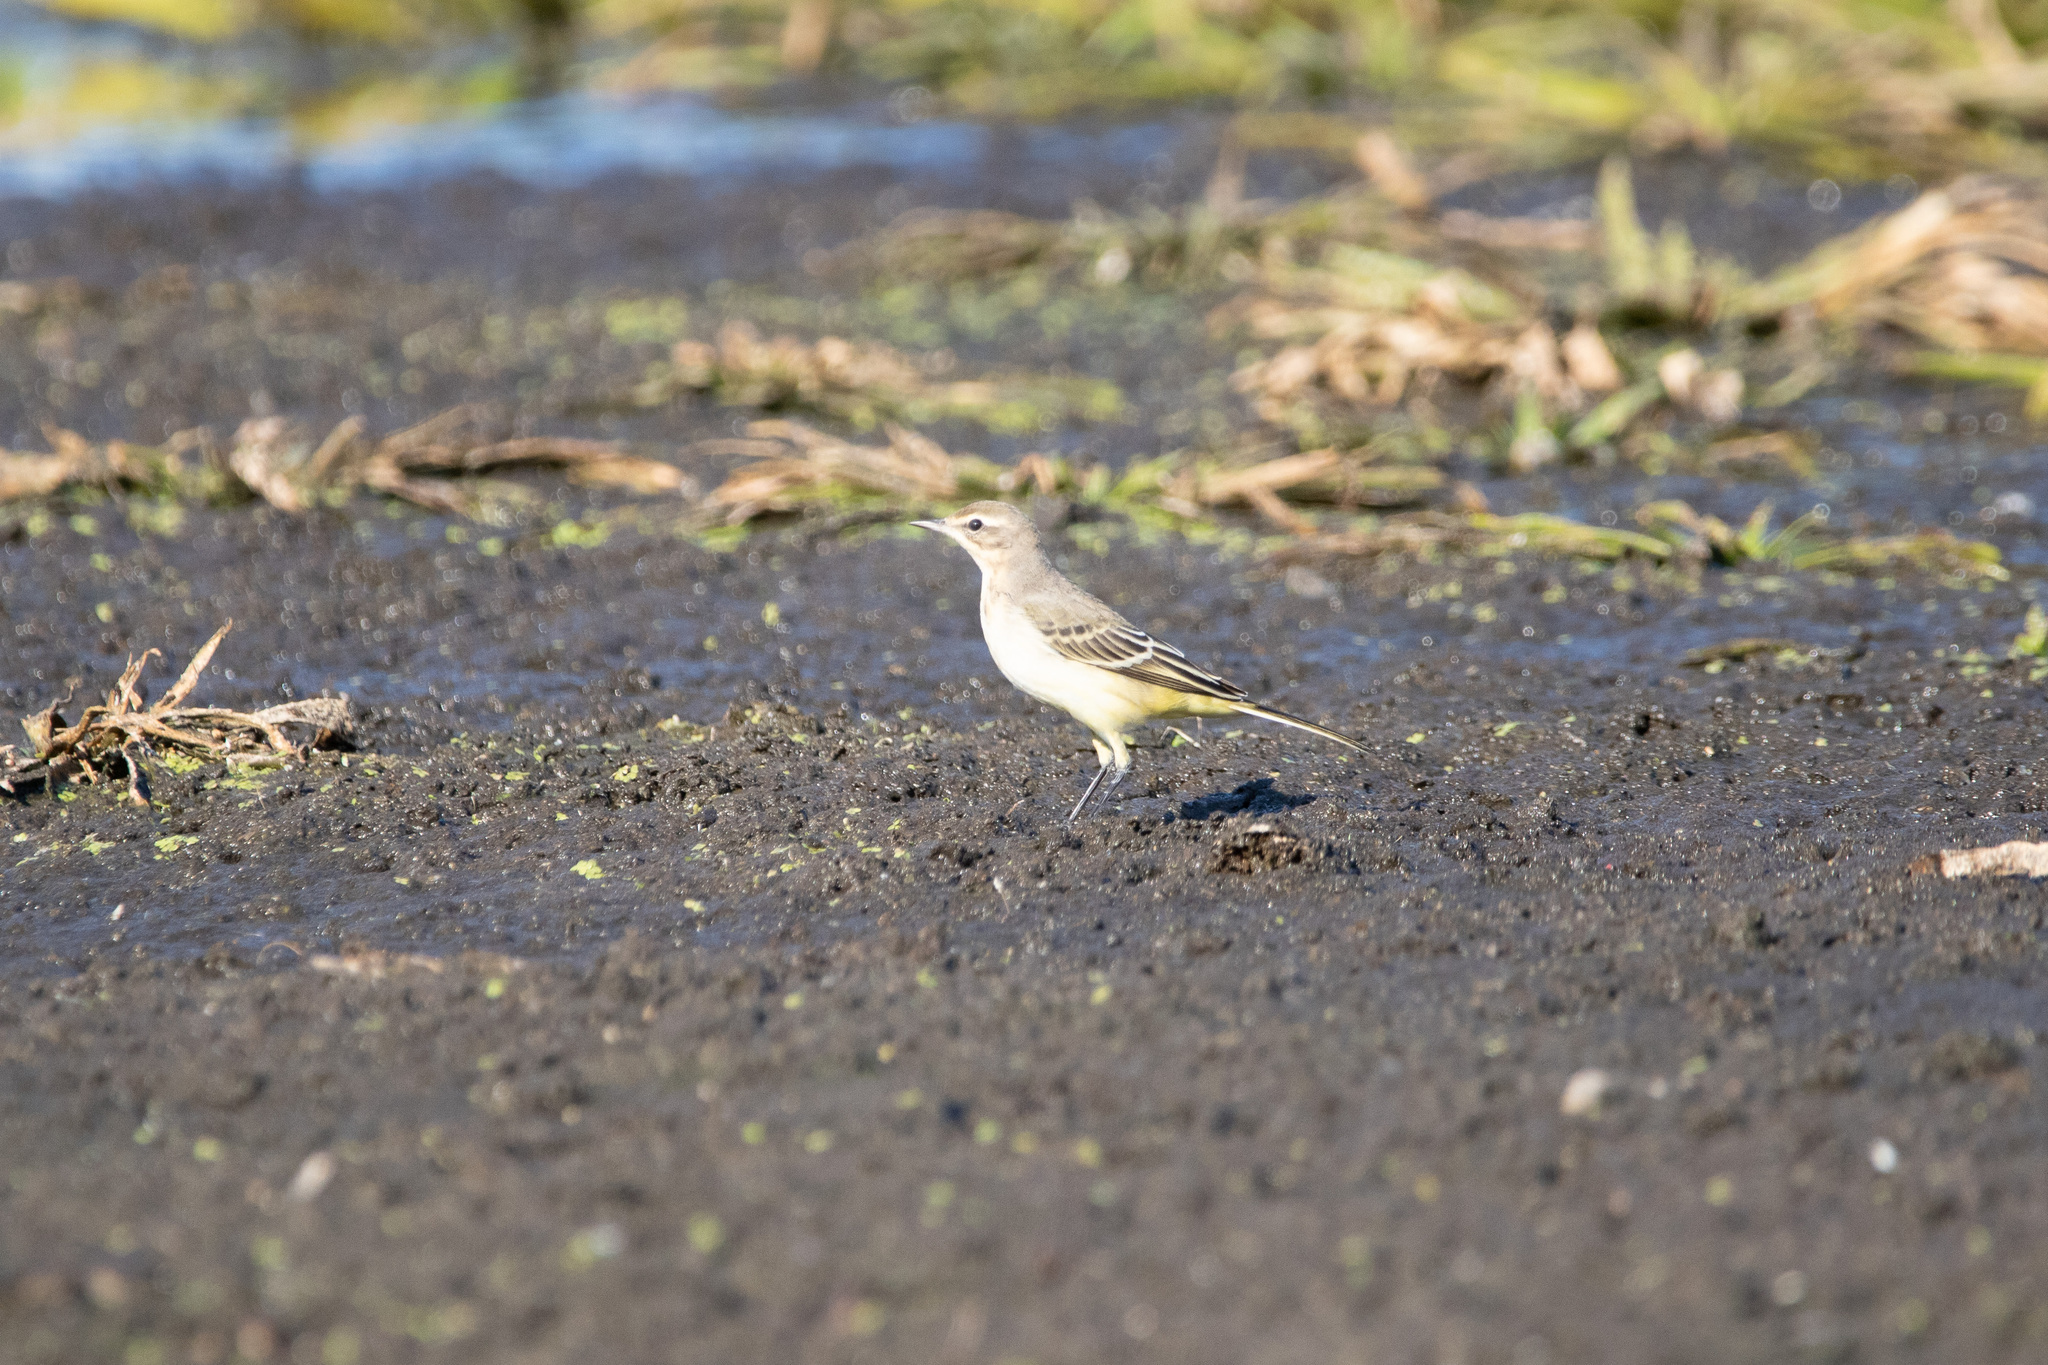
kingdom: Animalia
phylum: Chordata
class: Aves
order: Passeriformes
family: Motacillidae
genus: Motacilla
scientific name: Motacilla flava
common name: Western yellow wagtail
